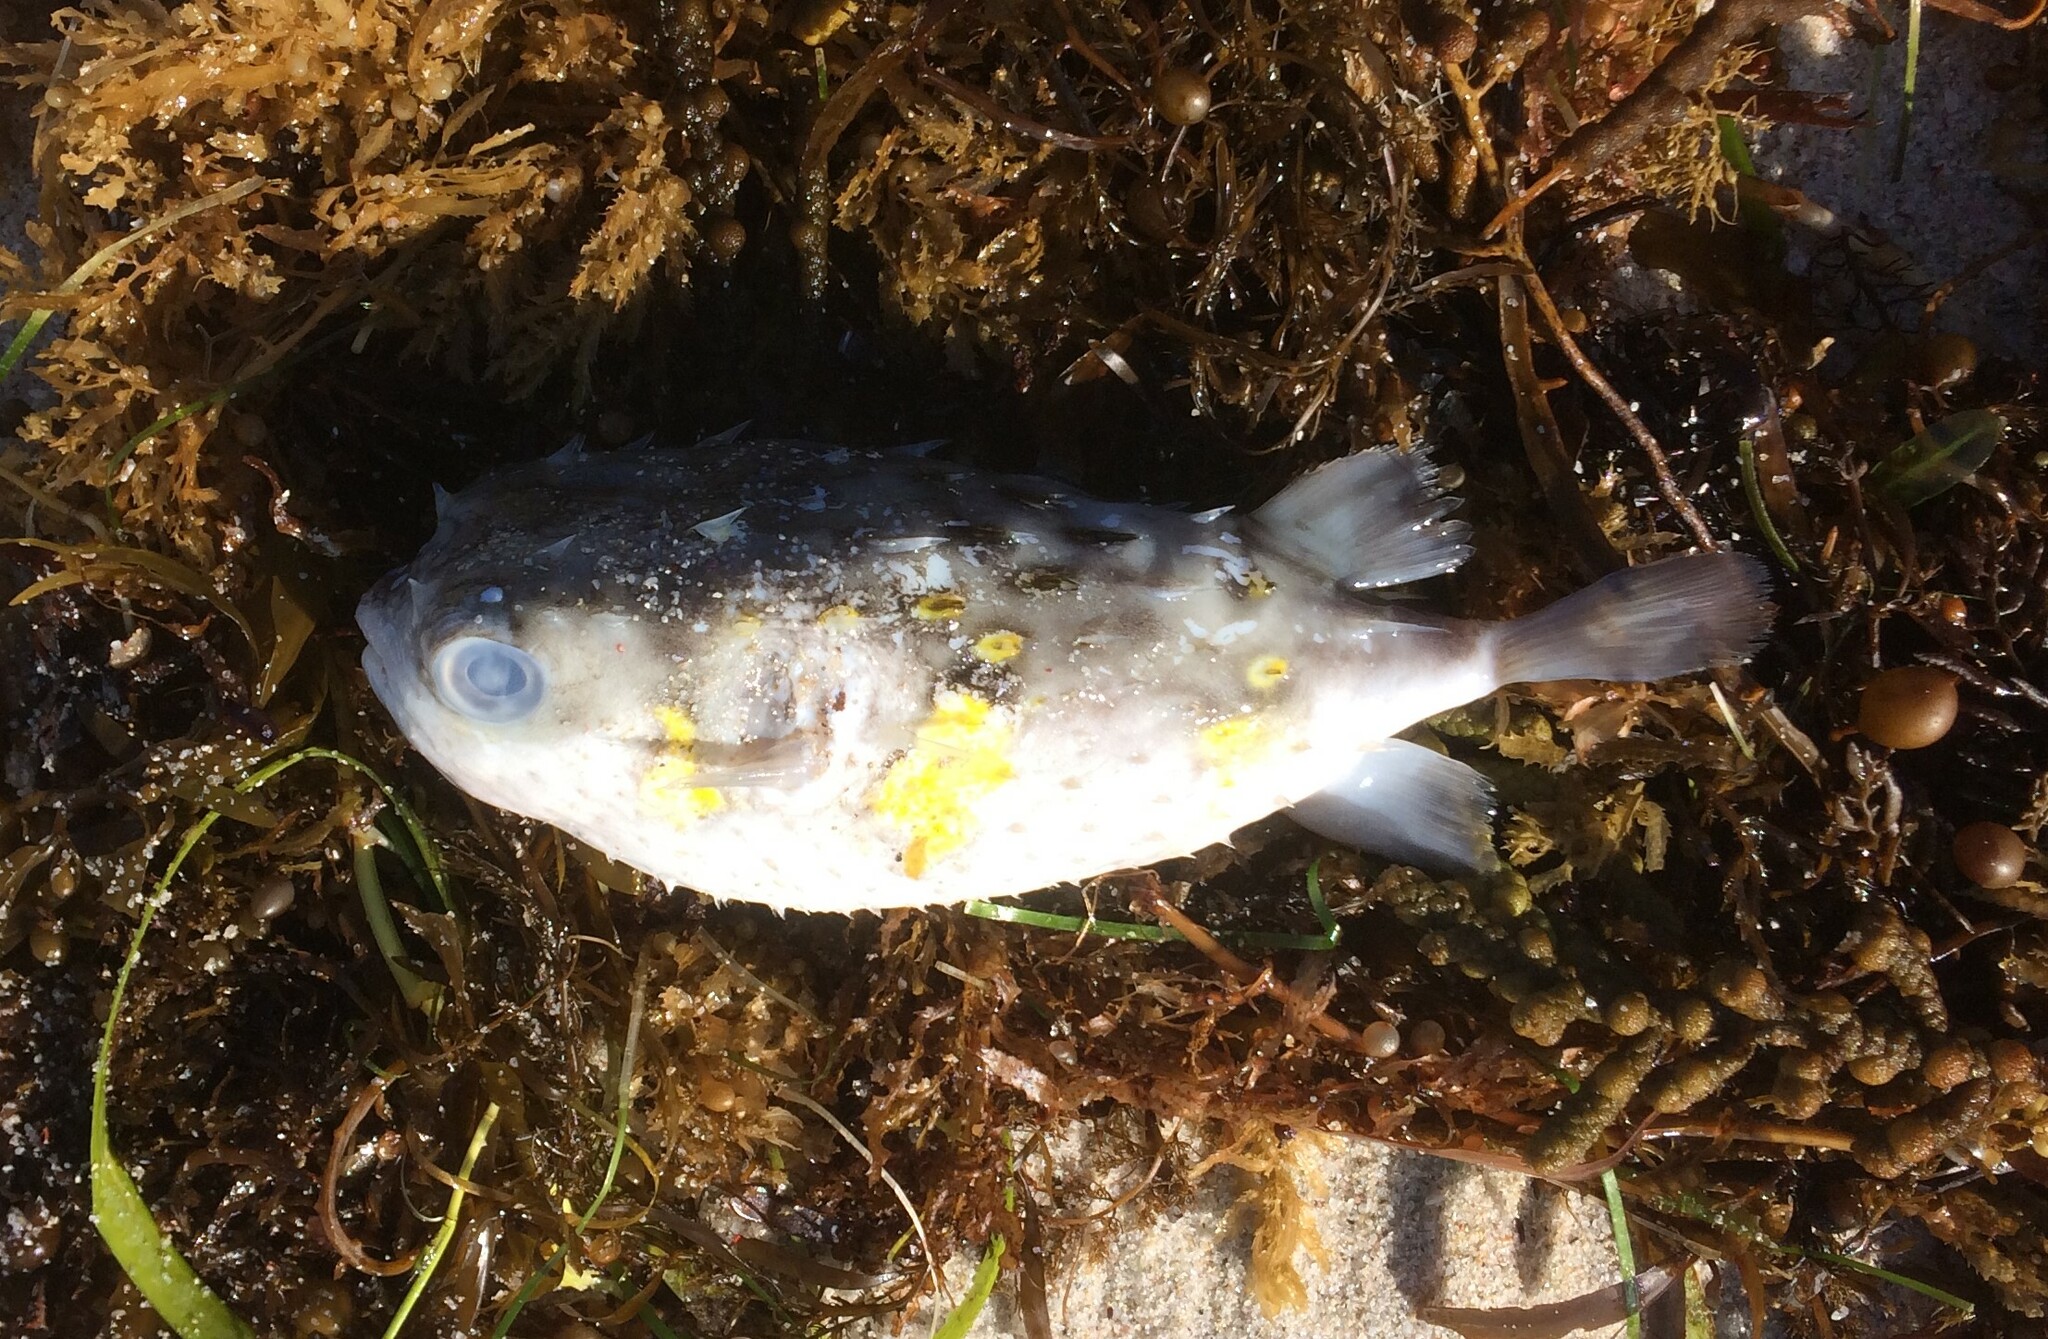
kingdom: Animalia
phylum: Chordata
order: Tetraodontiformes
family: Diodontidae
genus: Allomycterus
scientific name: Allomycterus pilatus
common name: No common name
